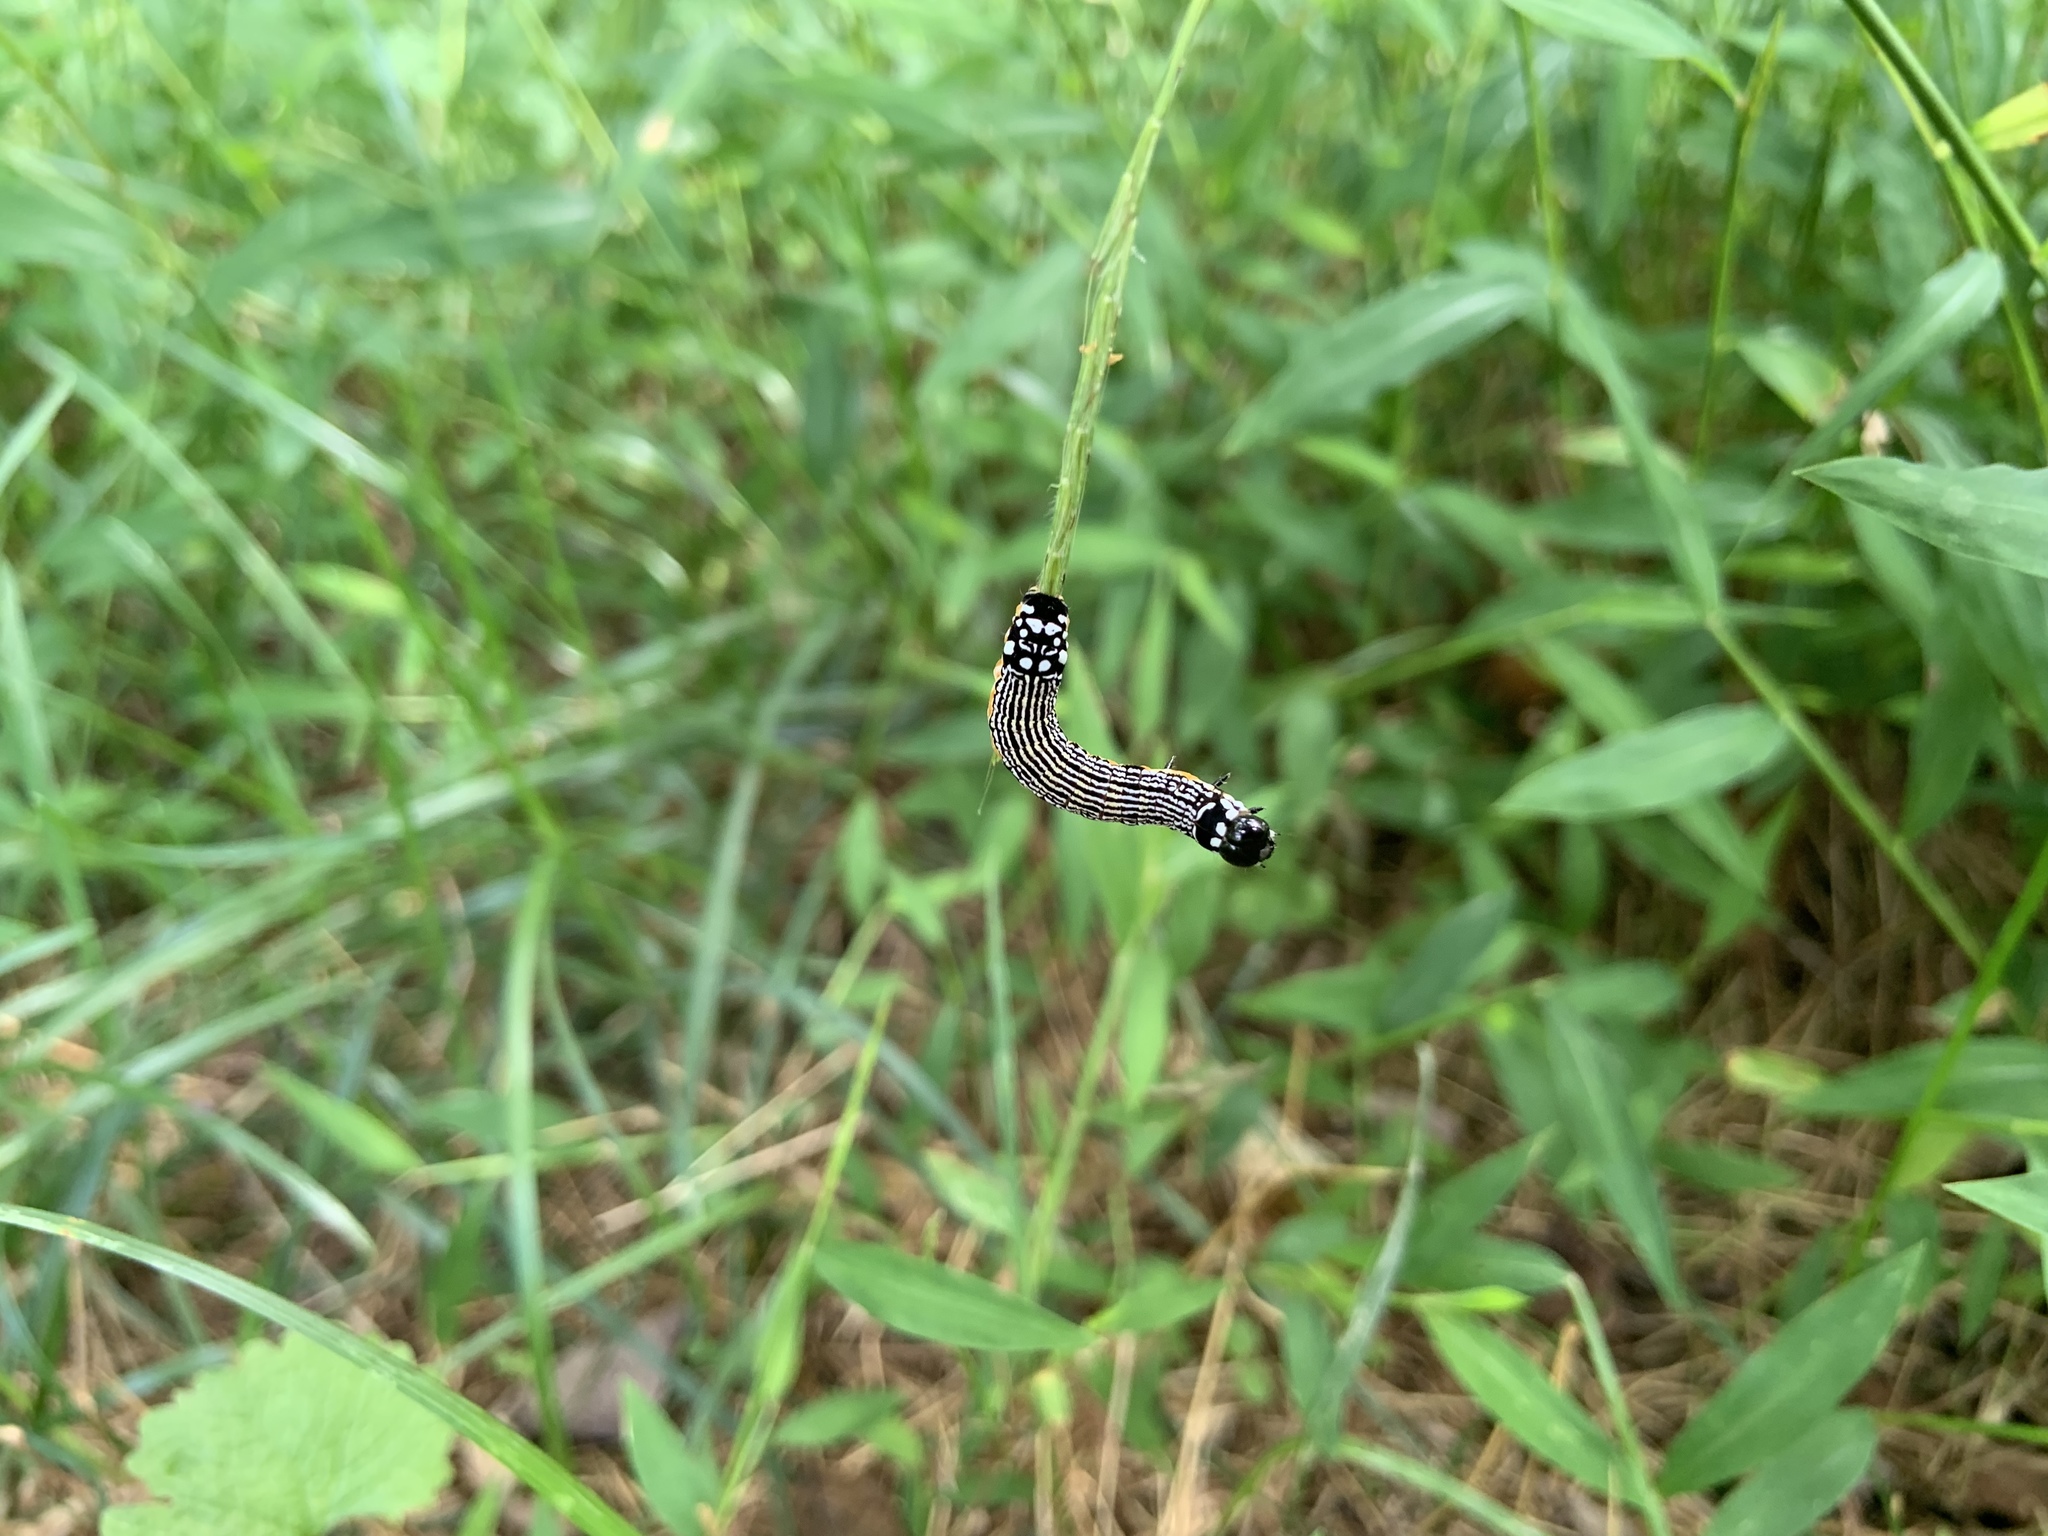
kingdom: Animalia
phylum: Arthropoda
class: Insecta
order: Lepidoptera
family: Noctuidae
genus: Phosphila
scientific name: Phosphila turbulenta
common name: Turbulent phosphila moth
